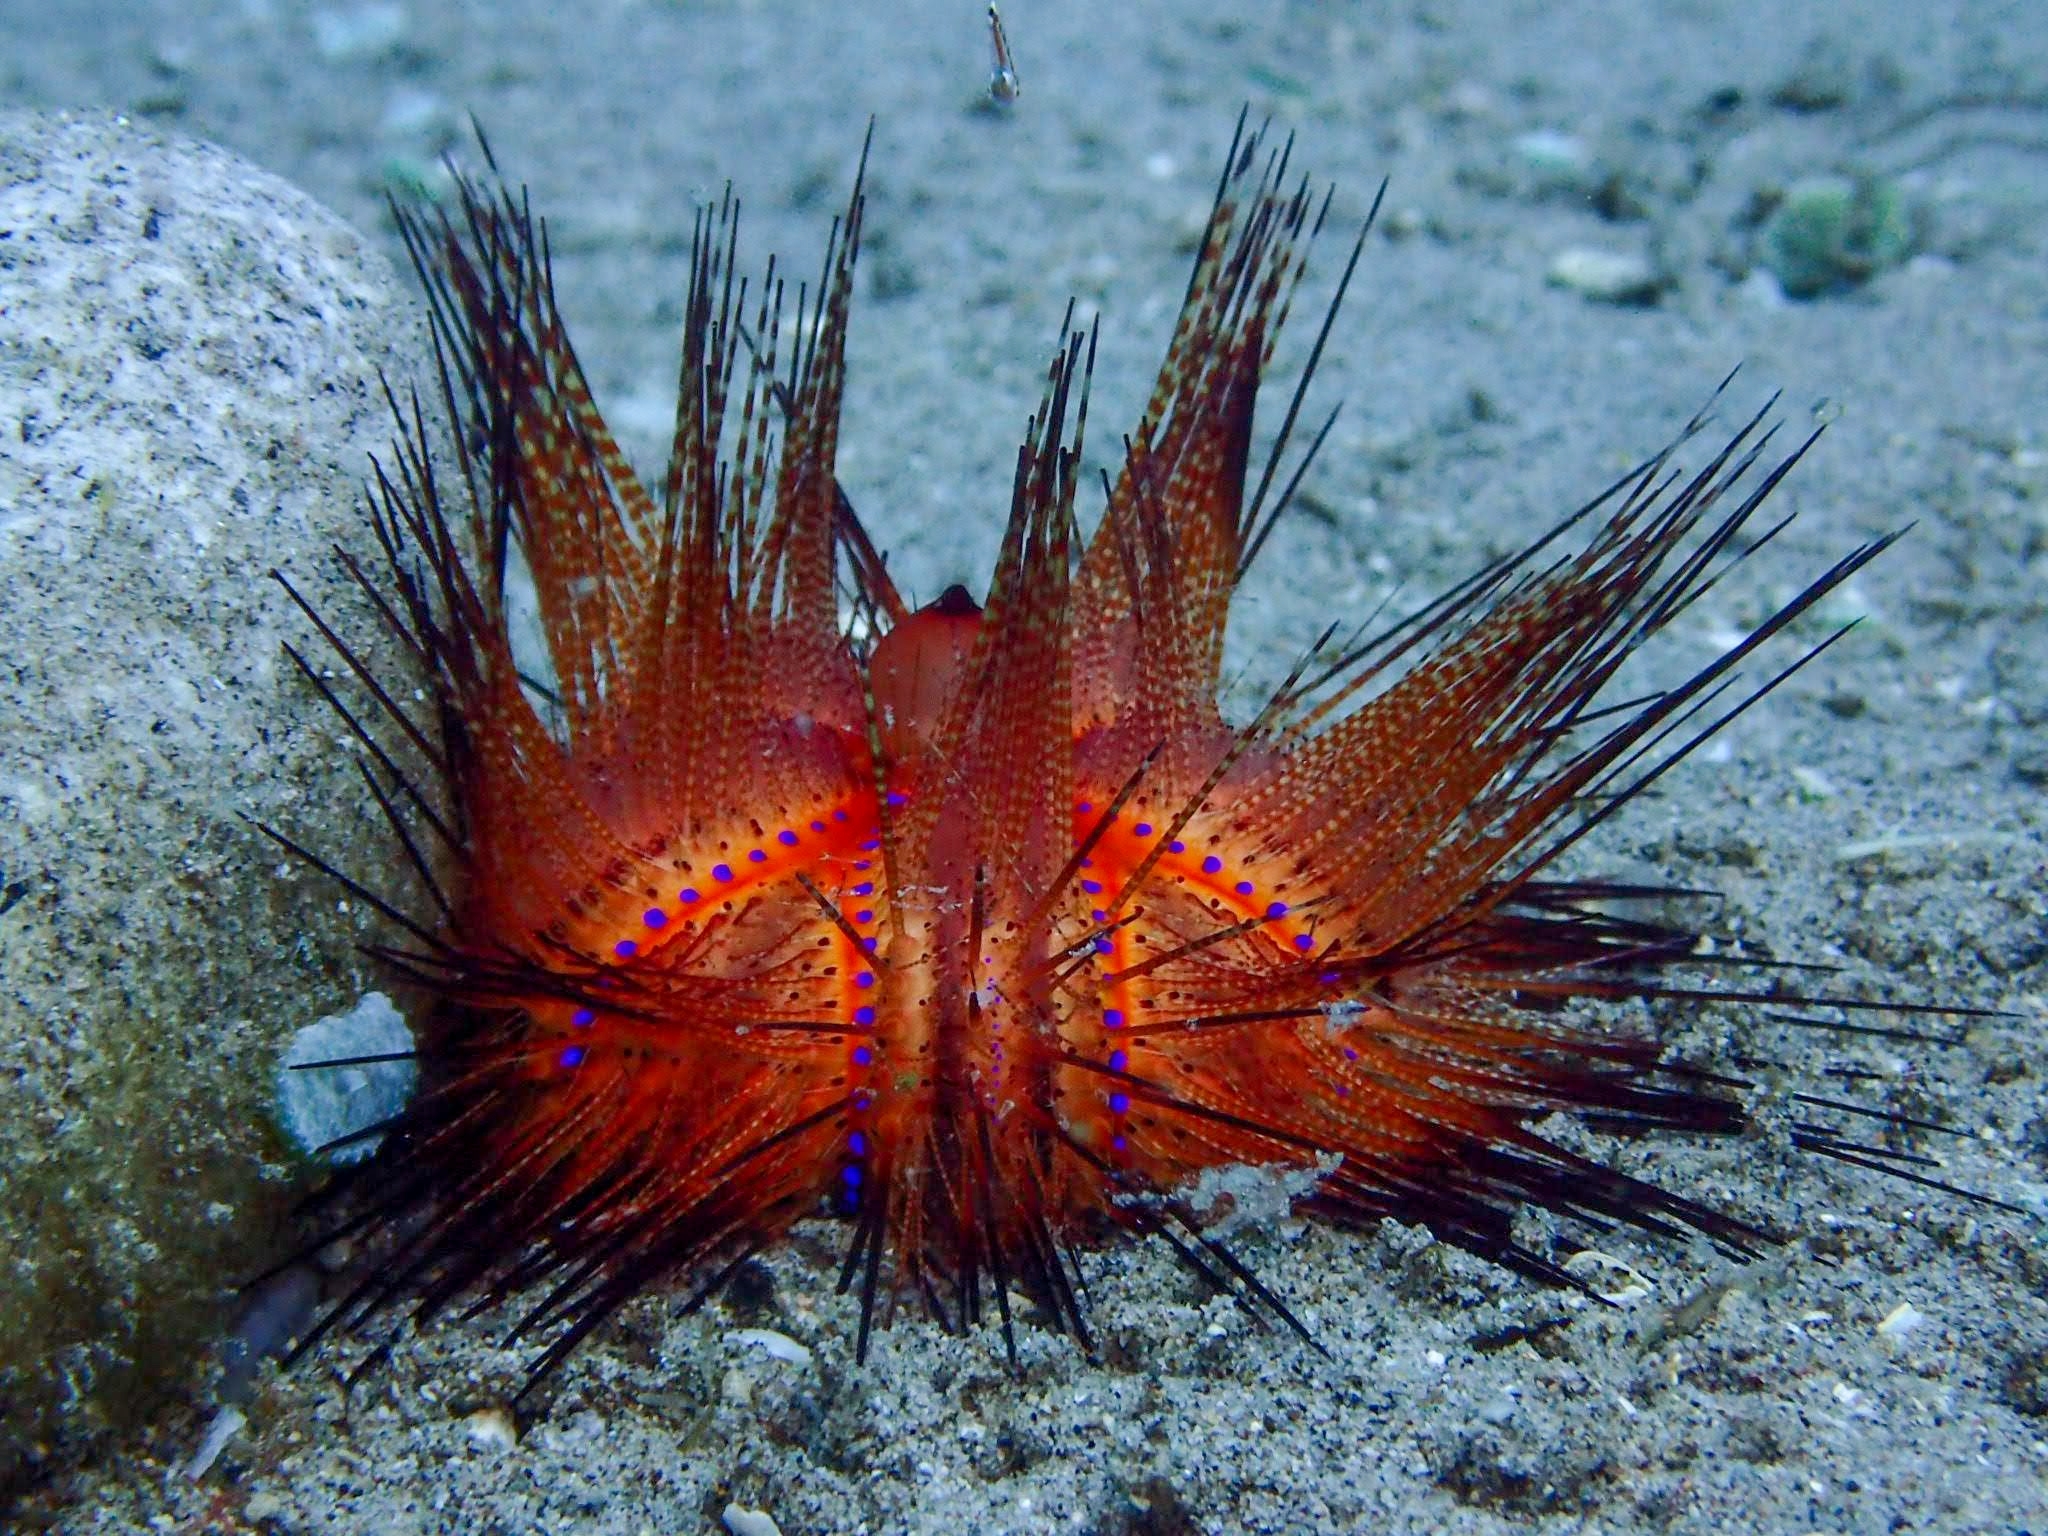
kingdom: Animalia
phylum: Echinodermata
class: Echinoidea
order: Diadematoida
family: Diadematidae
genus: Astropyga
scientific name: Astropyga radiata
